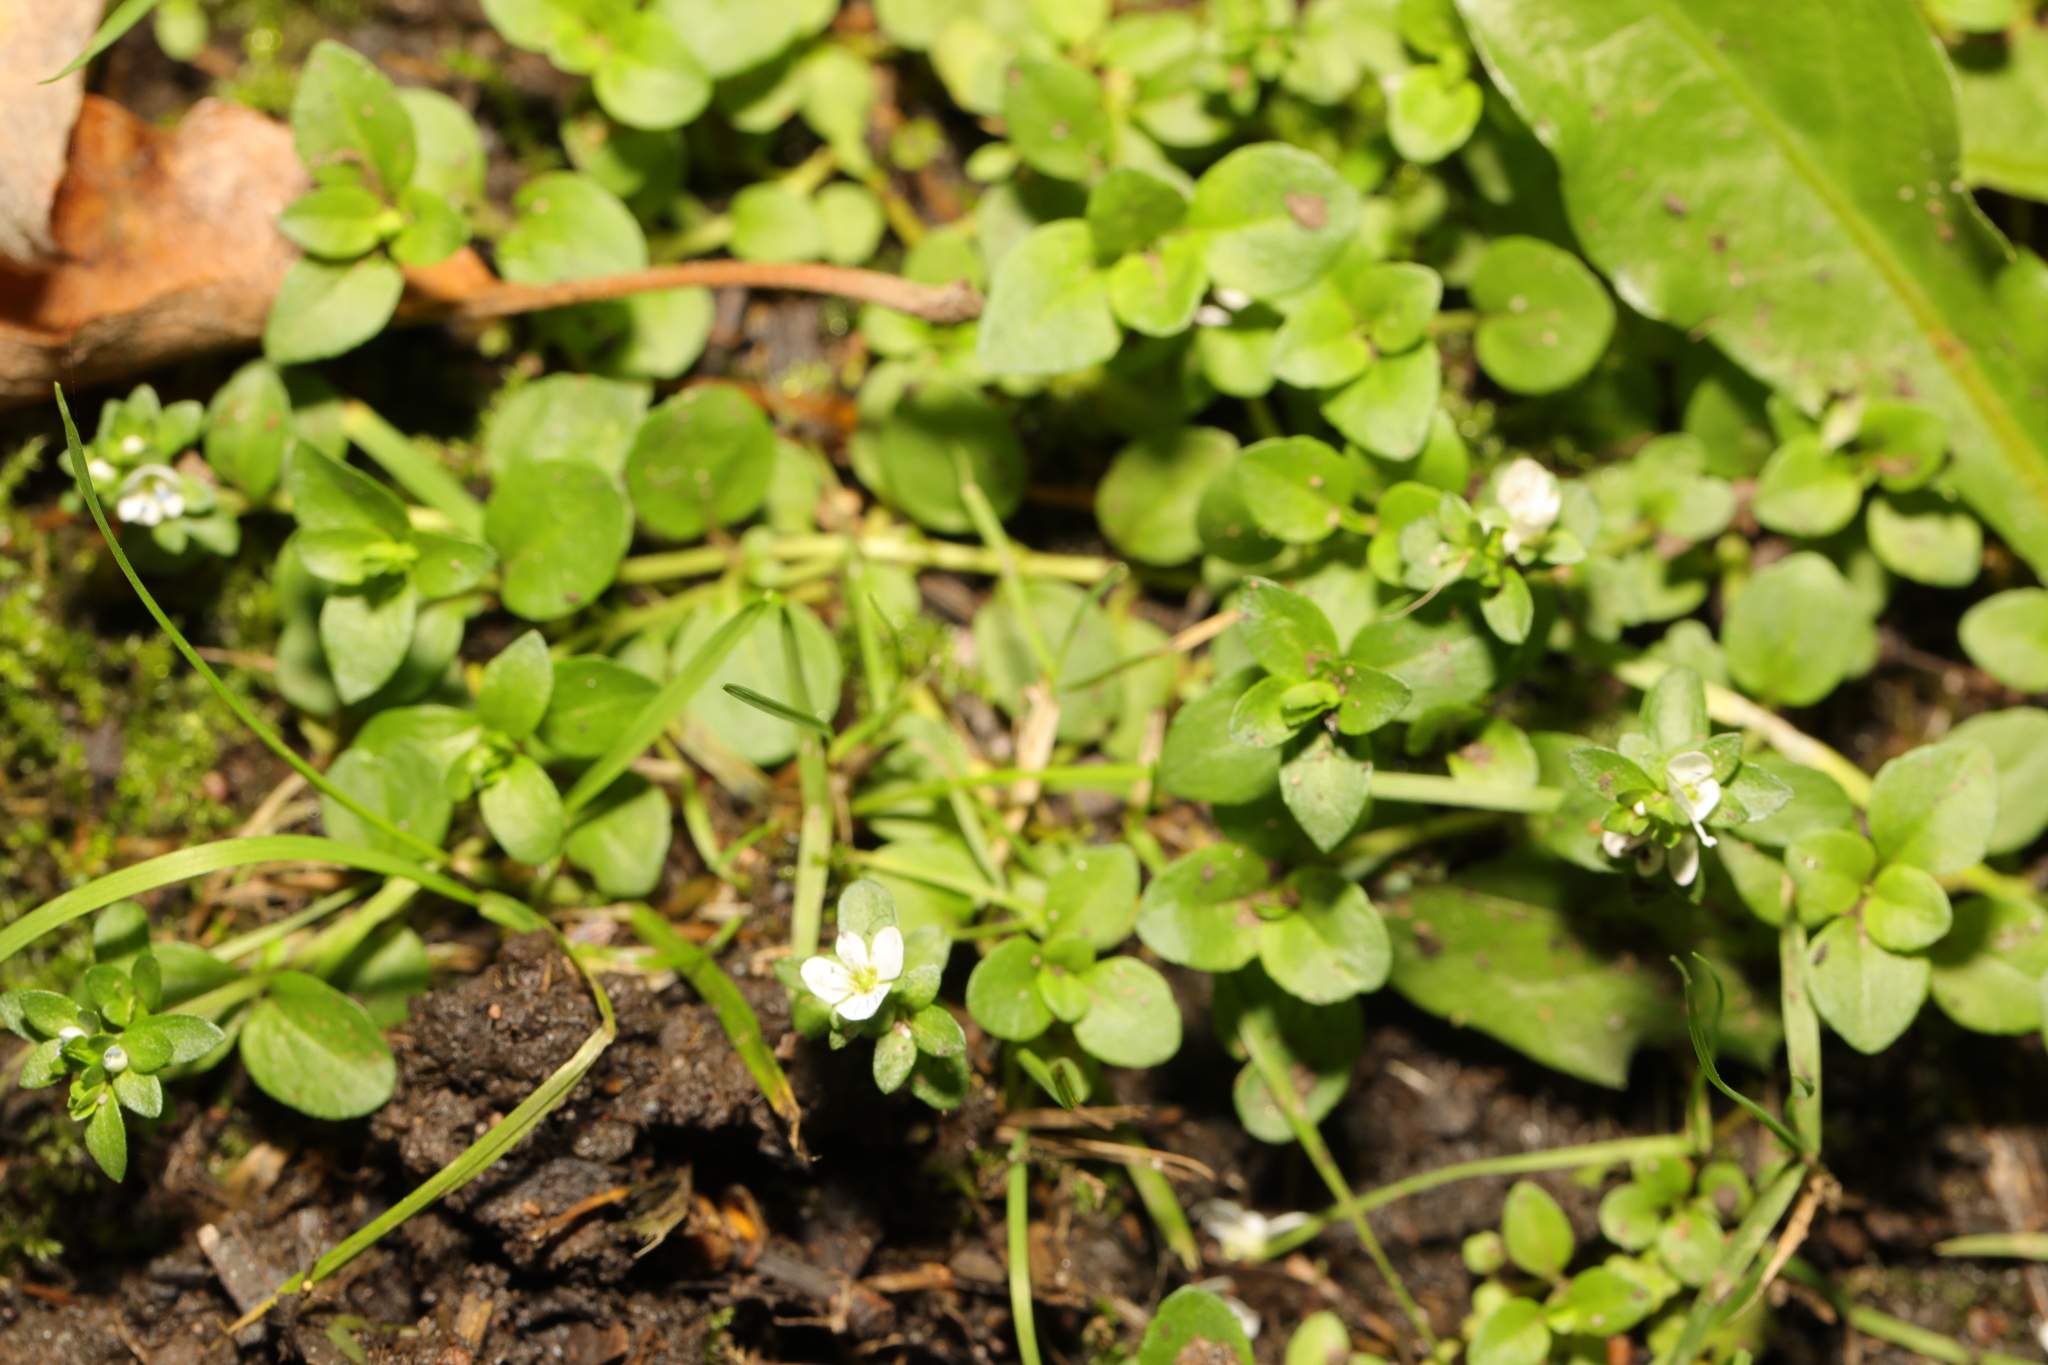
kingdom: Plantae
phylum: Tracheophyta
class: Magnoliopsida
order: Lamiales
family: Plantaginaceae
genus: Veronica
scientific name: Veronica serpyllifolia
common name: Thyme-leaved speedwell
